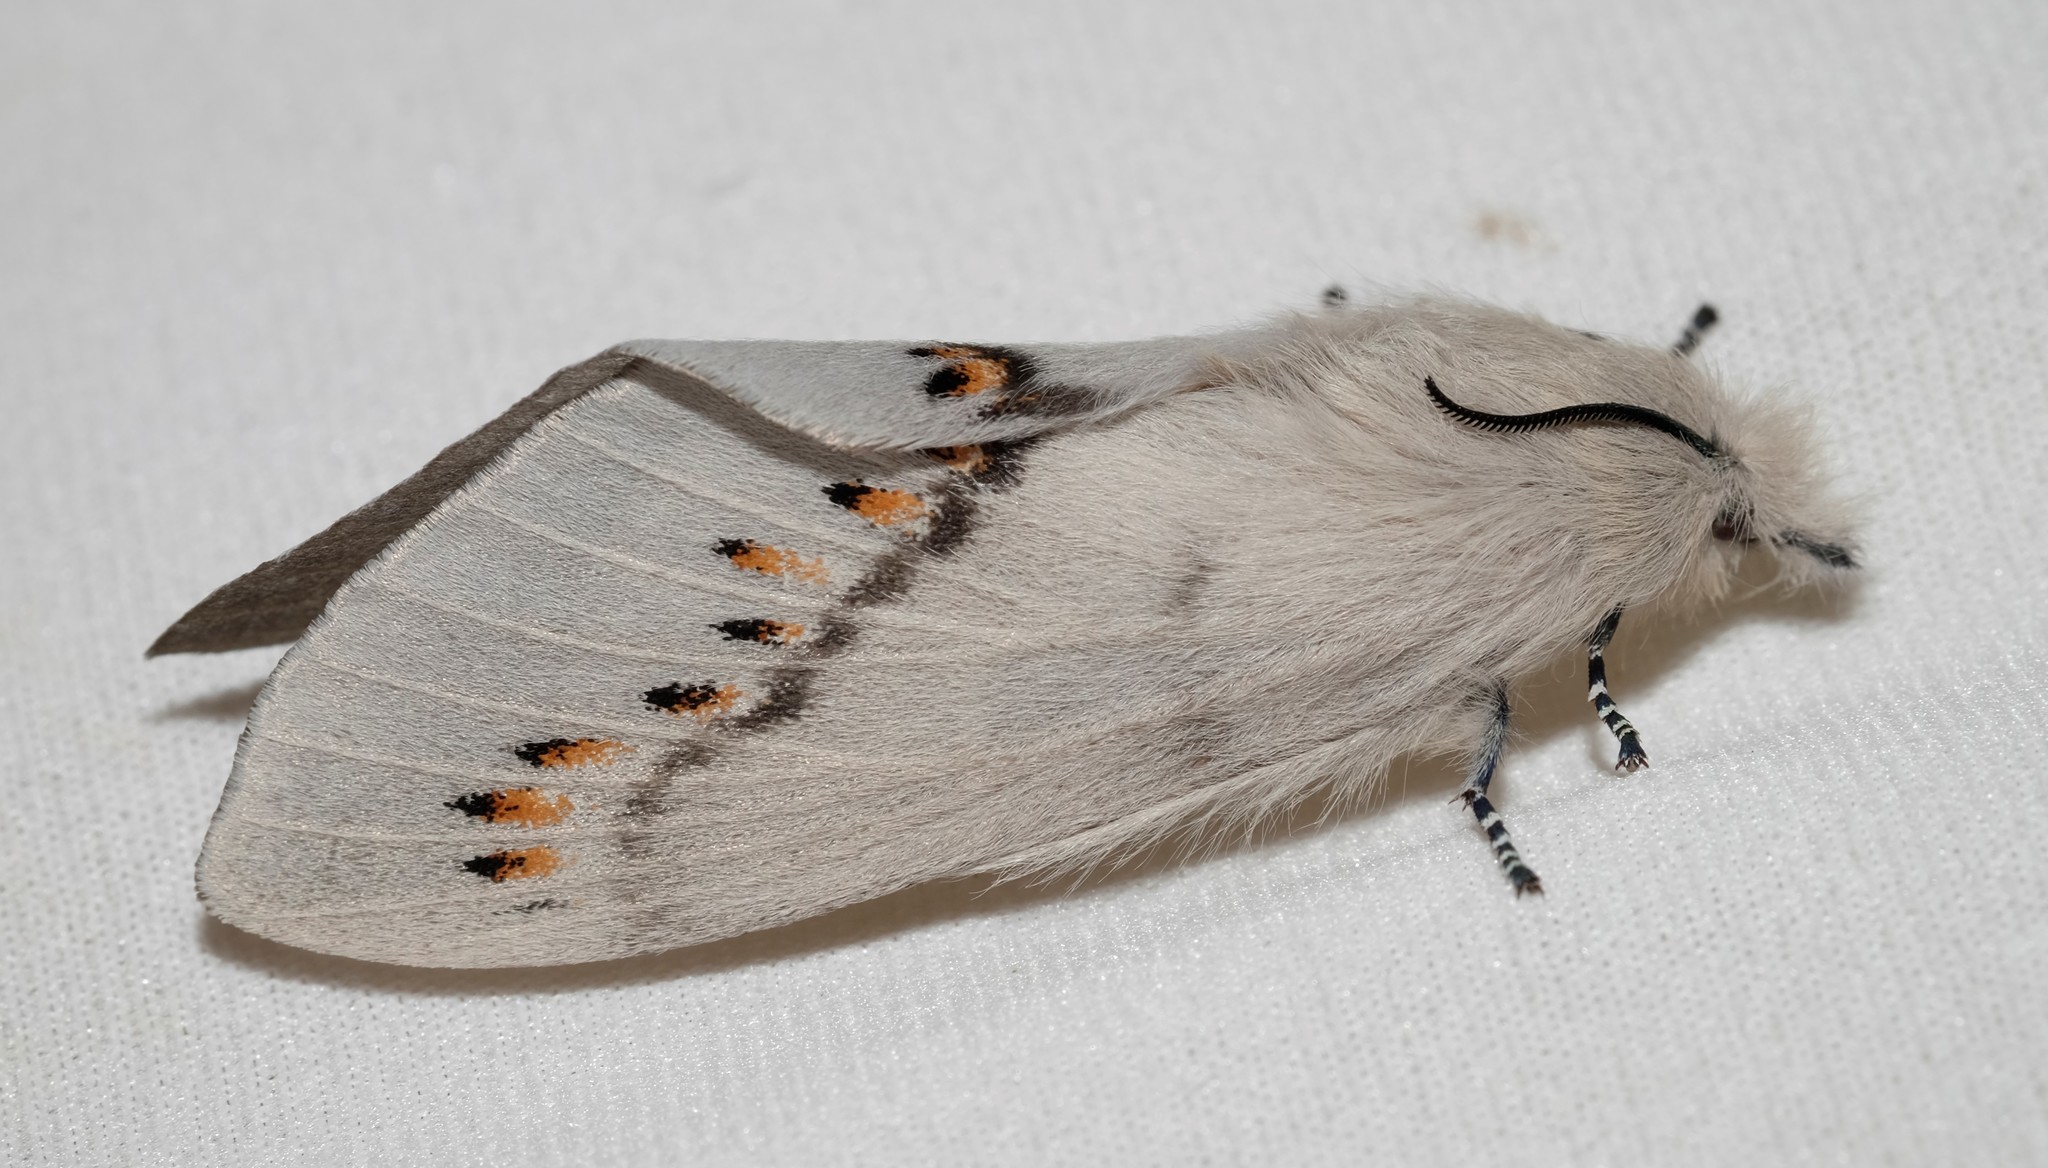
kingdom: Animalia
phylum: Arthropoda
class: Insecta
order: Lepidoptera
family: Lasiocampidae
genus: Pinara
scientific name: Pinara obliqua
